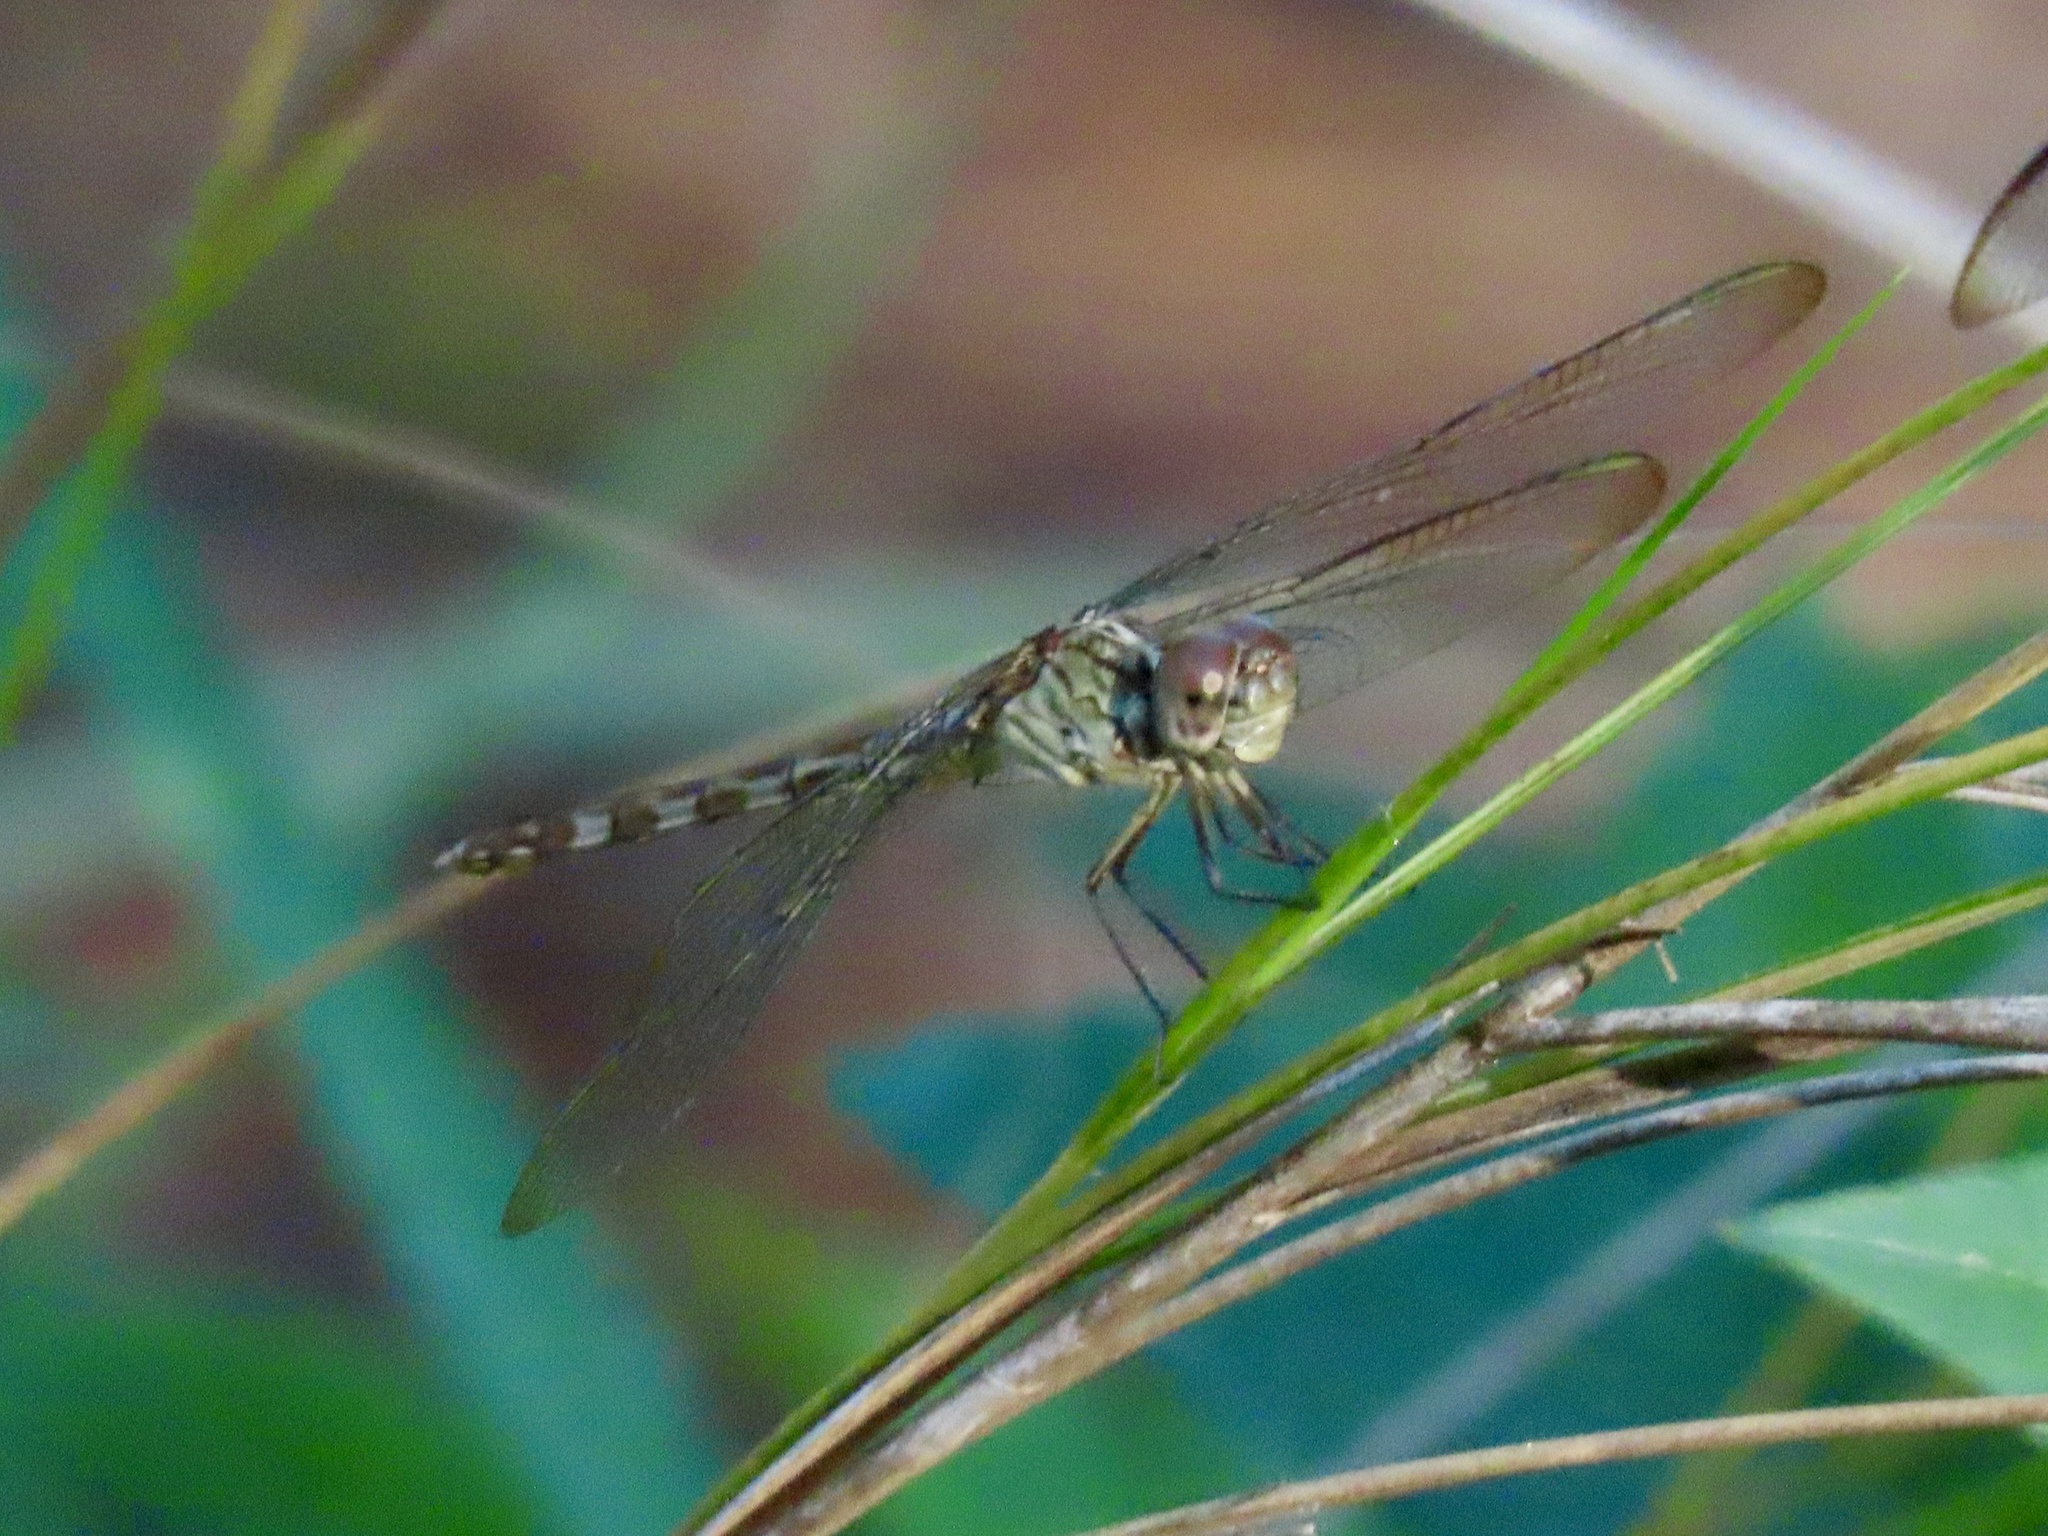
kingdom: Animalia
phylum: Arthropoda
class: Insecta
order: Odonata
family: Libellulidae
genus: Erythrodiplax
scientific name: Erythrodiplax umbrata
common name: Band-winged dragonlet
